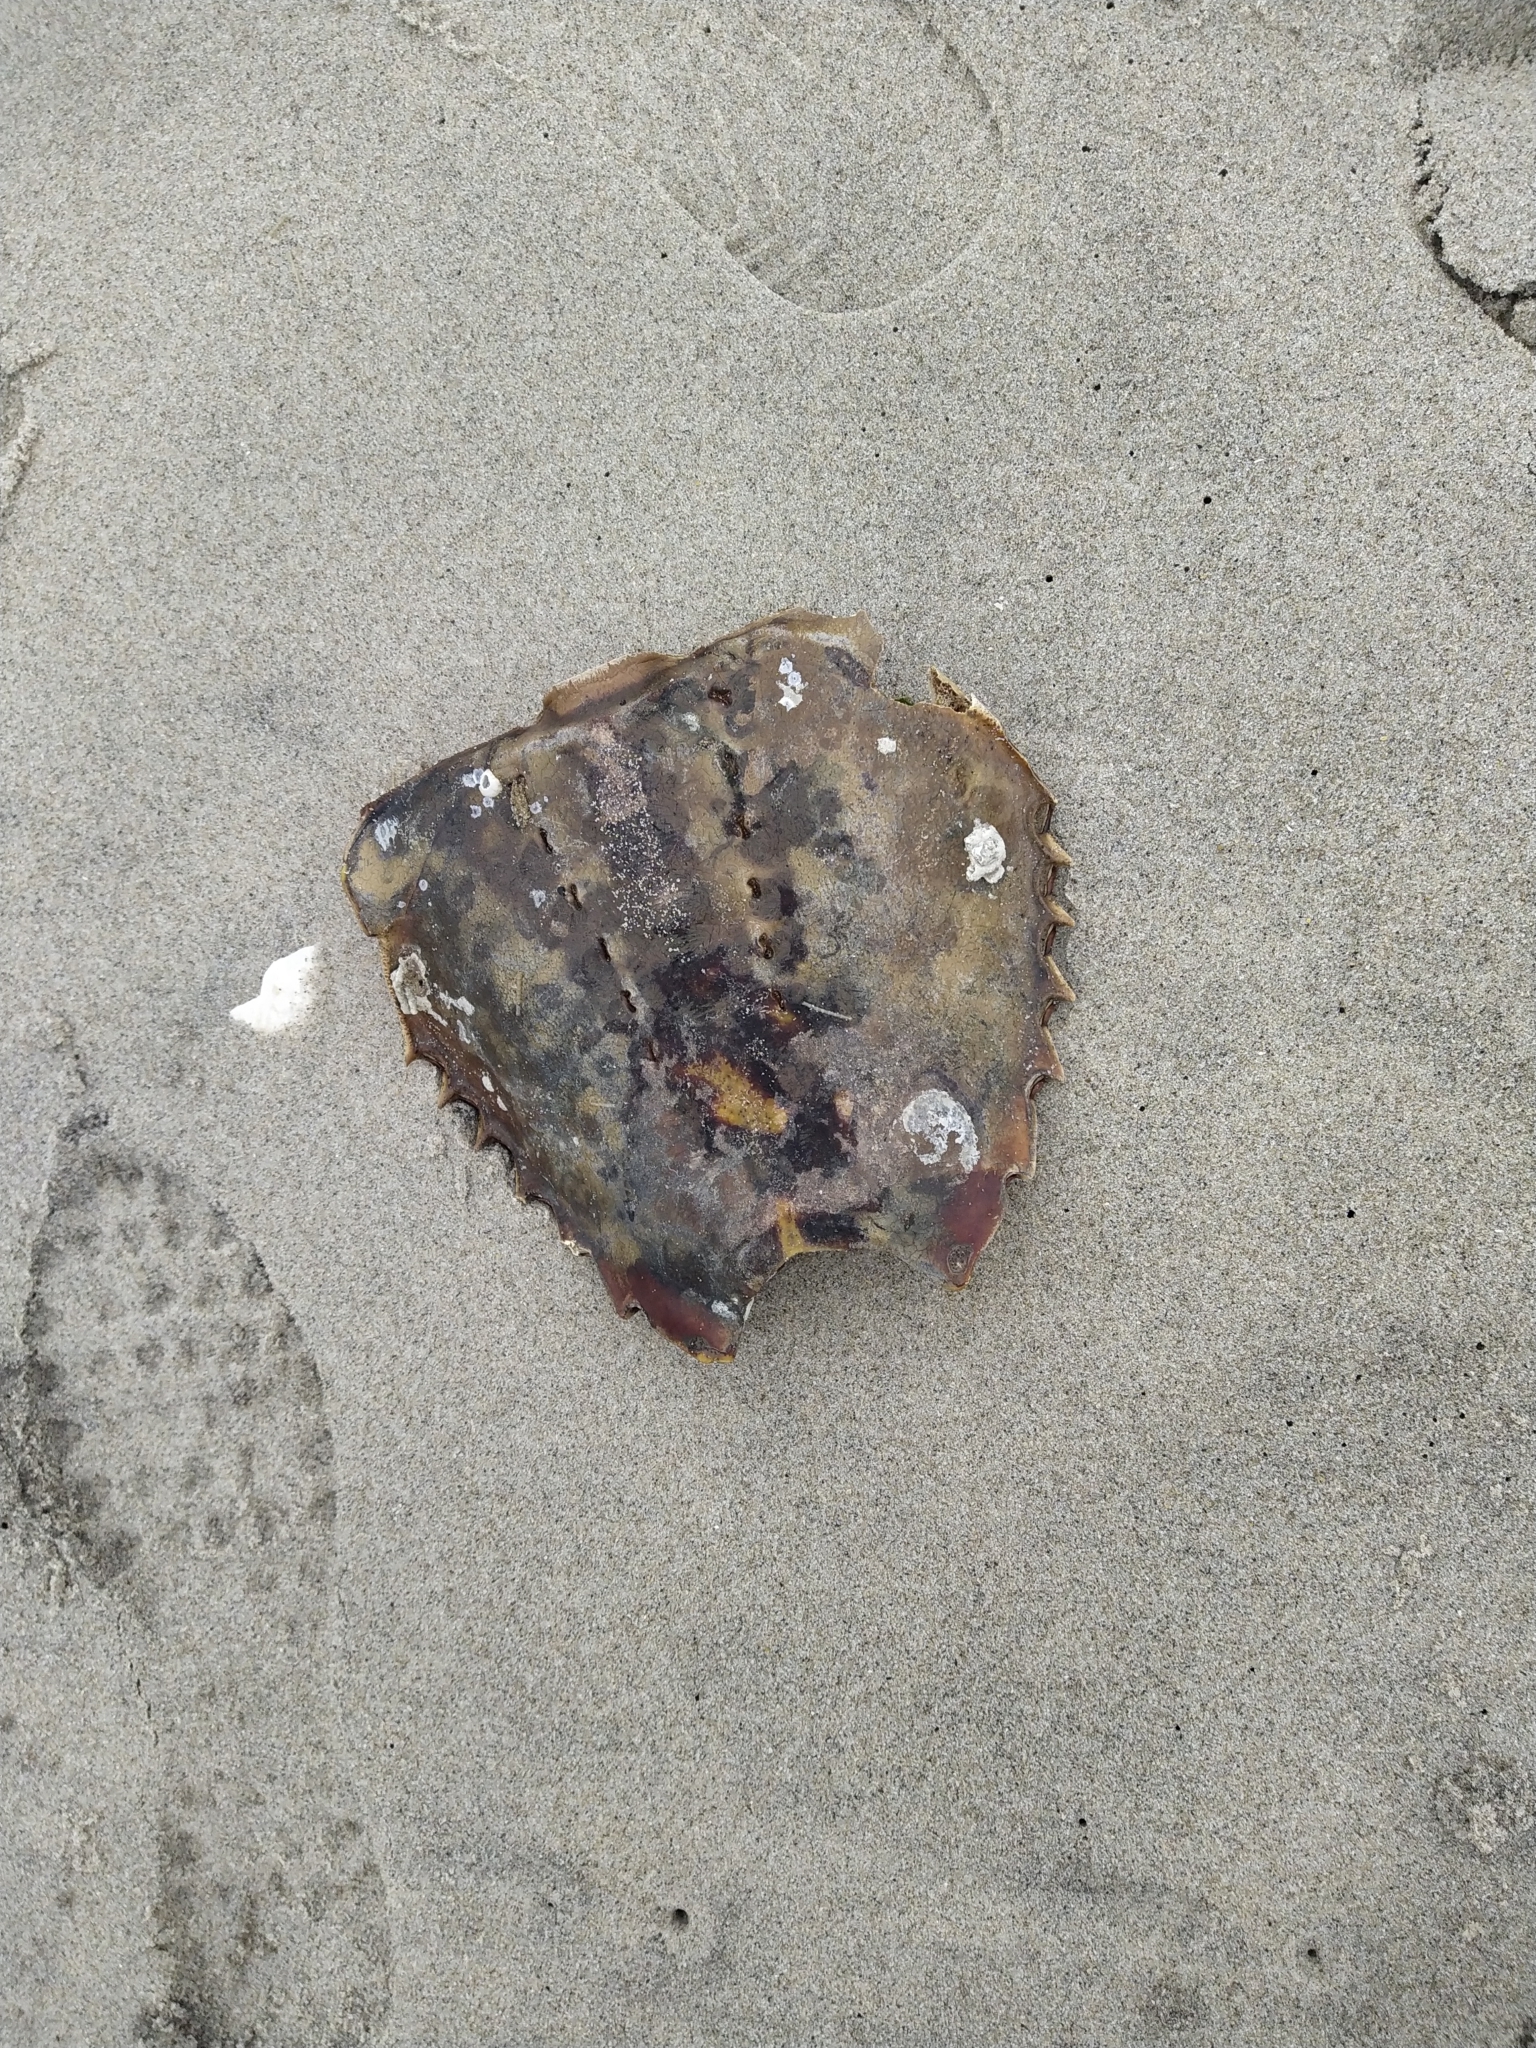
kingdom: Animalia
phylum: Arthropoda
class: Merostomata
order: Xiphosurida
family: Limulidae
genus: Limulus
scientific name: Limulus polyphemus
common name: Horseshoe crab
